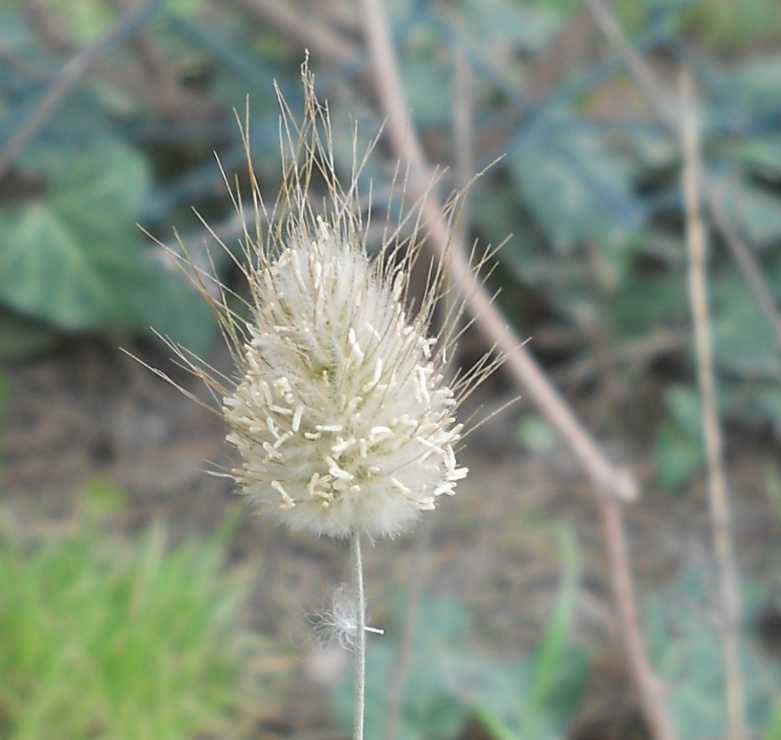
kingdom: Plantae
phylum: Tracheophyta
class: Liliopsida
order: Poales
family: Poaceae
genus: Lagurus
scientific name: Lagurus ovatus
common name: Hare's-tail
